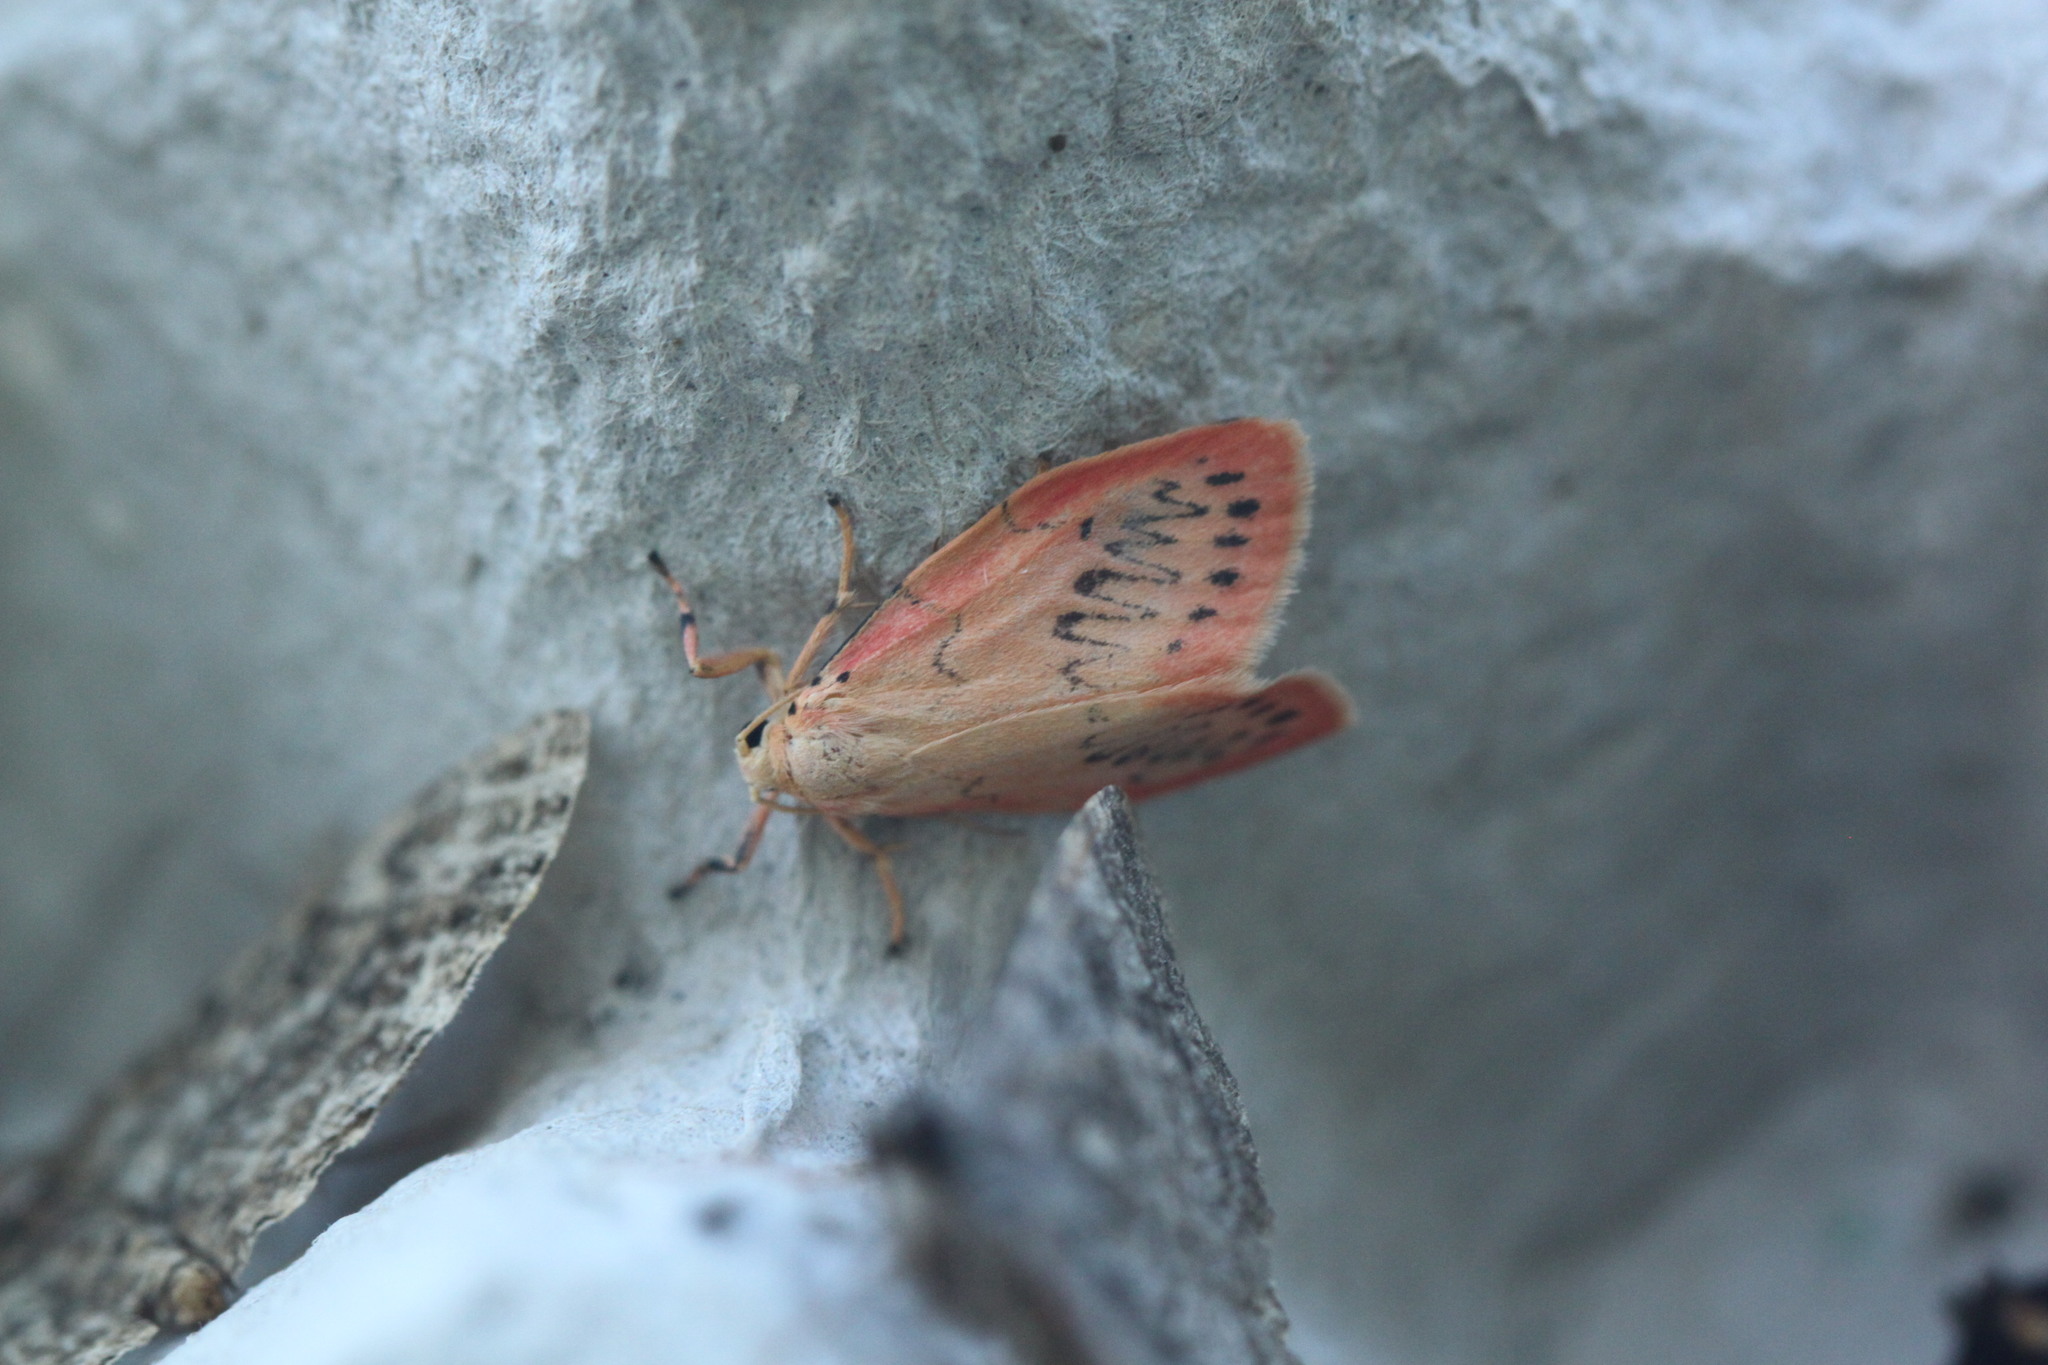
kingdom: Animalia
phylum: Arthropoda
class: Insecta
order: Lepidoptera
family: Erebidae
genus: Miltochrista
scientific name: Miltochrista miniata
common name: Rosy footman
